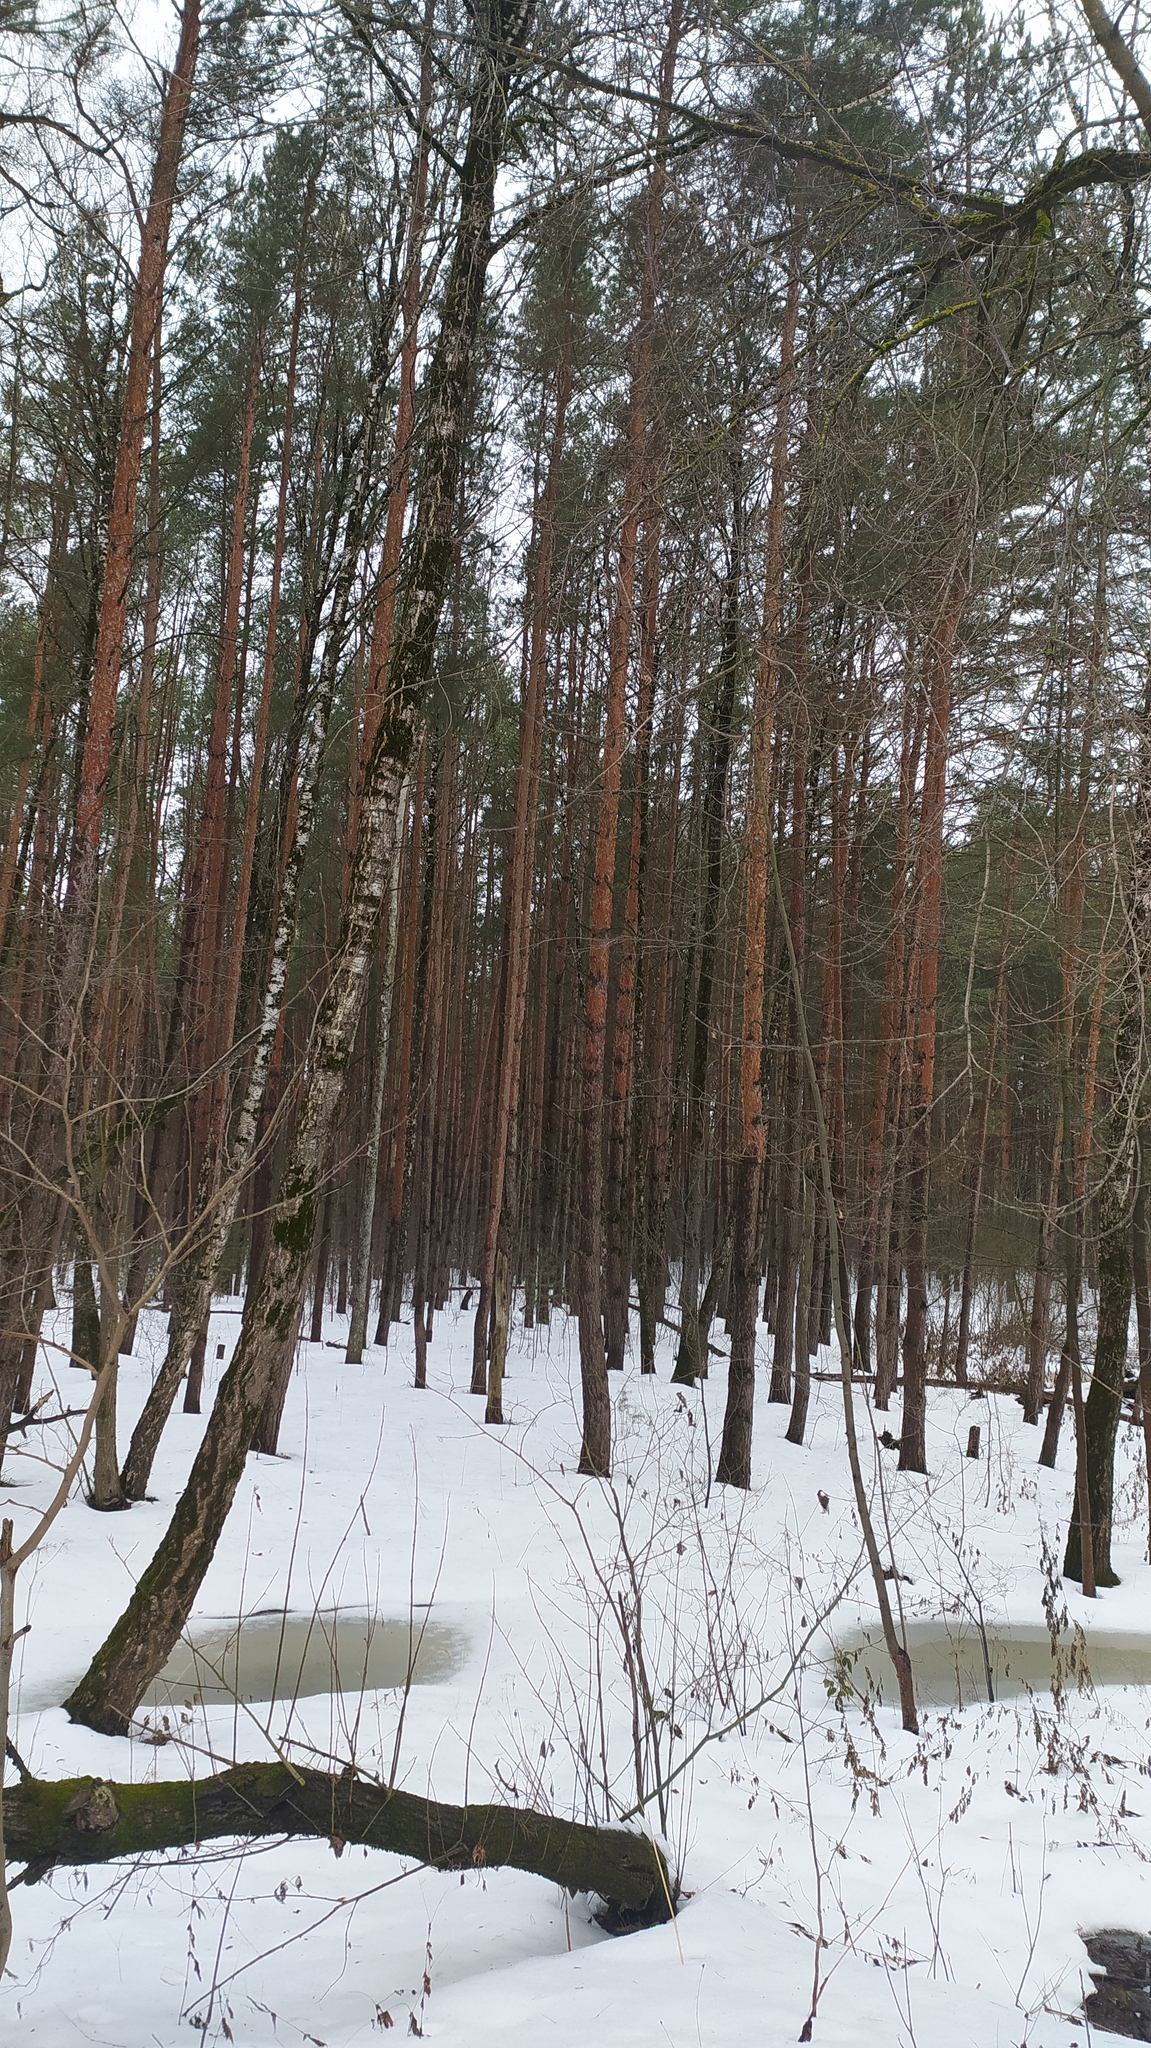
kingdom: Plantae
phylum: Tracheophyta
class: Pinopsida
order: Pinales
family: Pinaceae
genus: Pinus
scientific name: Pinus sylvestris
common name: Scots pine
